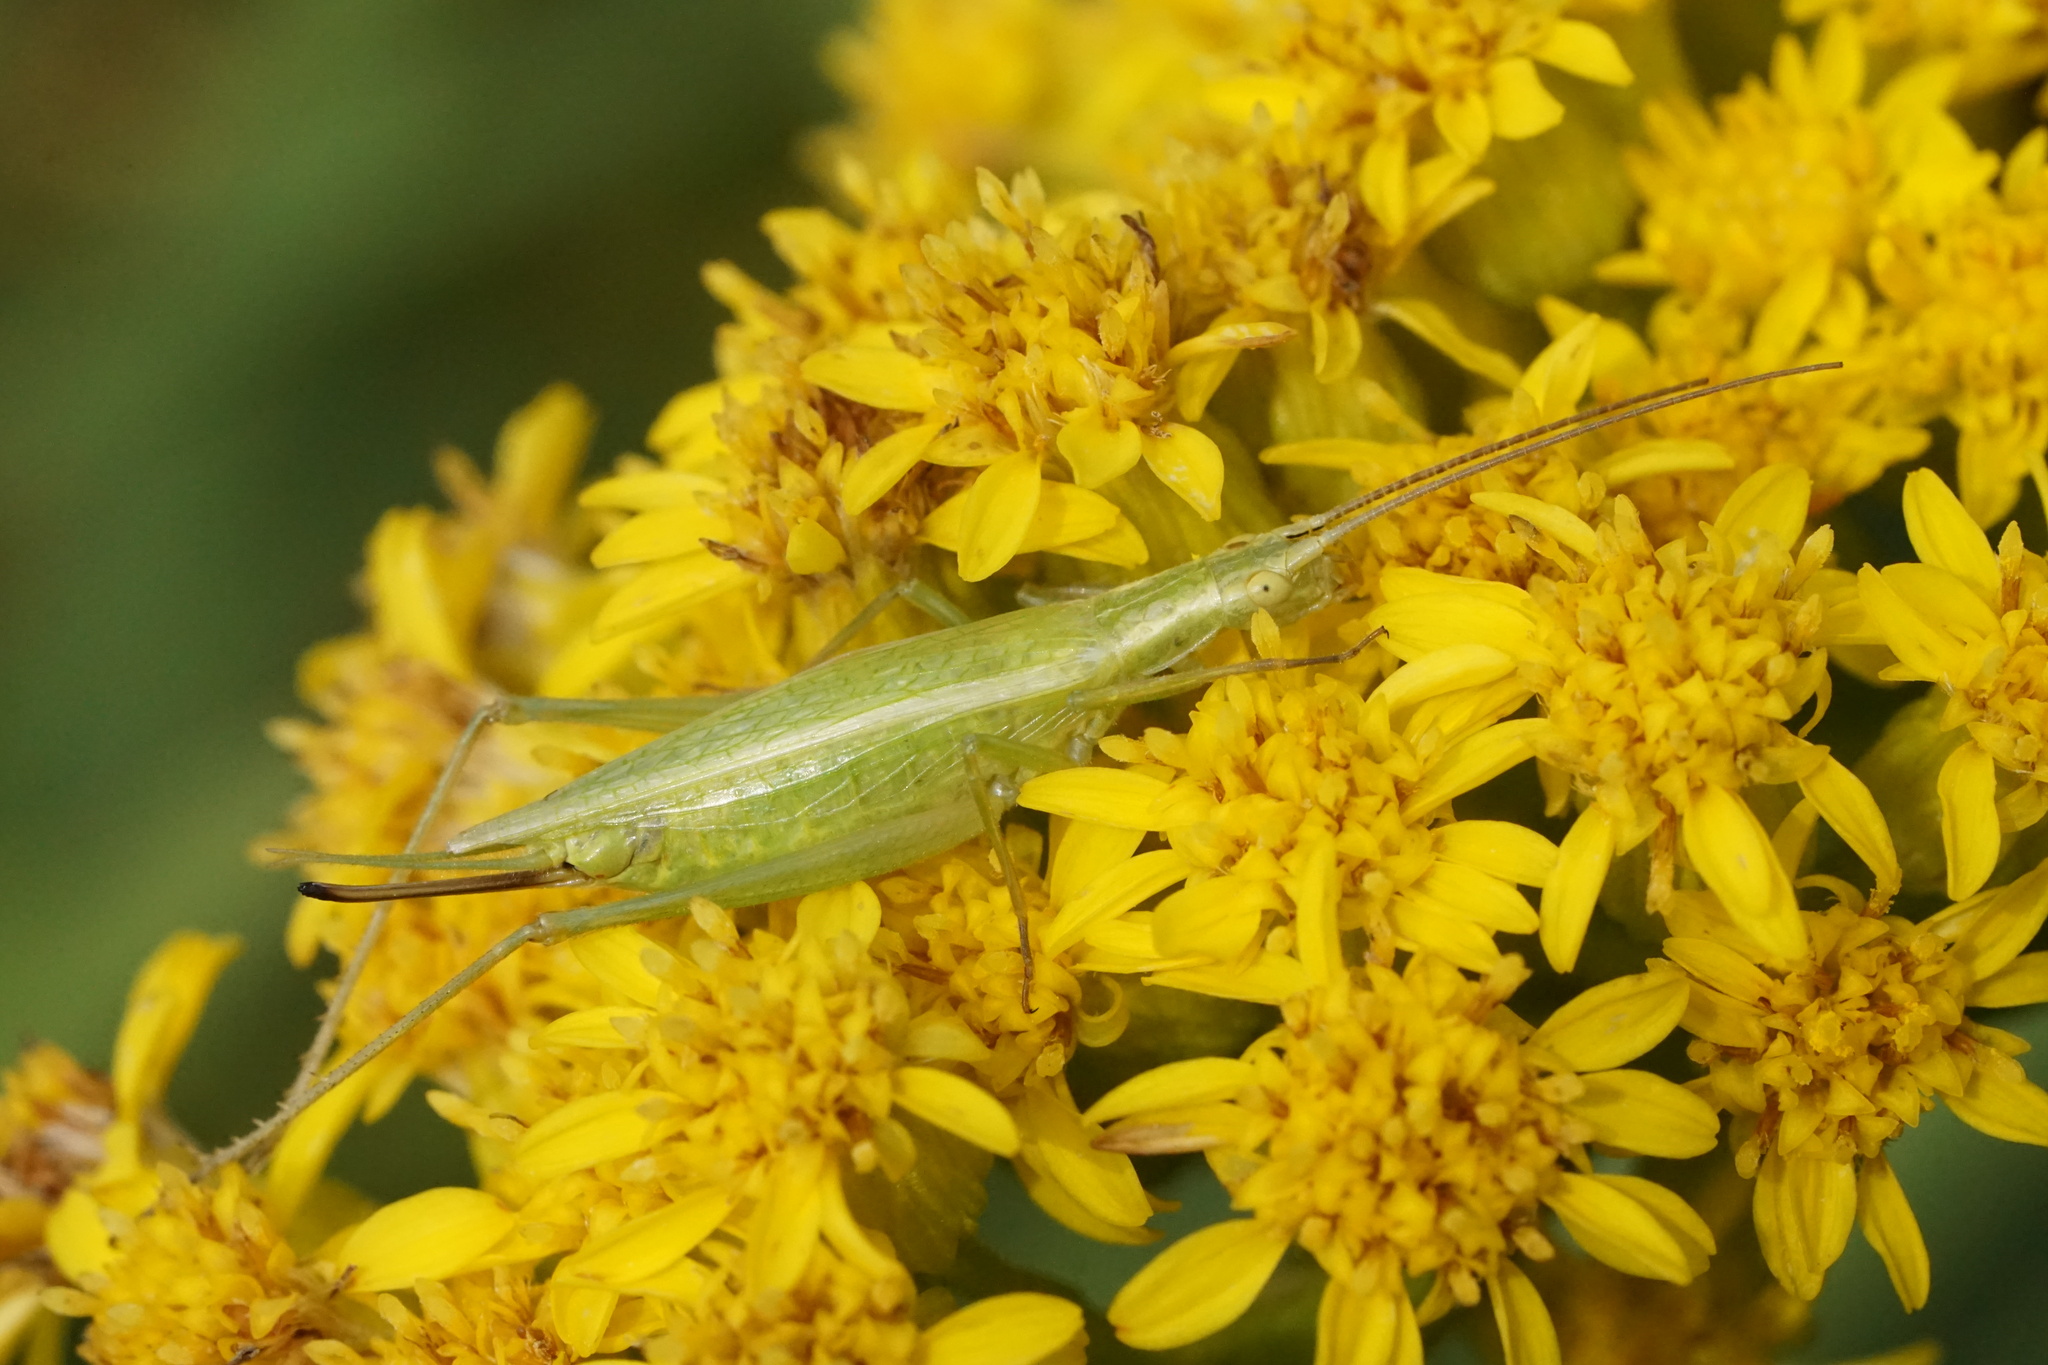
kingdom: Animalia
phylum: Arthropoda
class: Insecta
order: Orthoptera
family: Gryllidae
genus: Oecanthus
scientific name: Oecanthus quadripunctatus
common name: Four-spotted tree cricket
